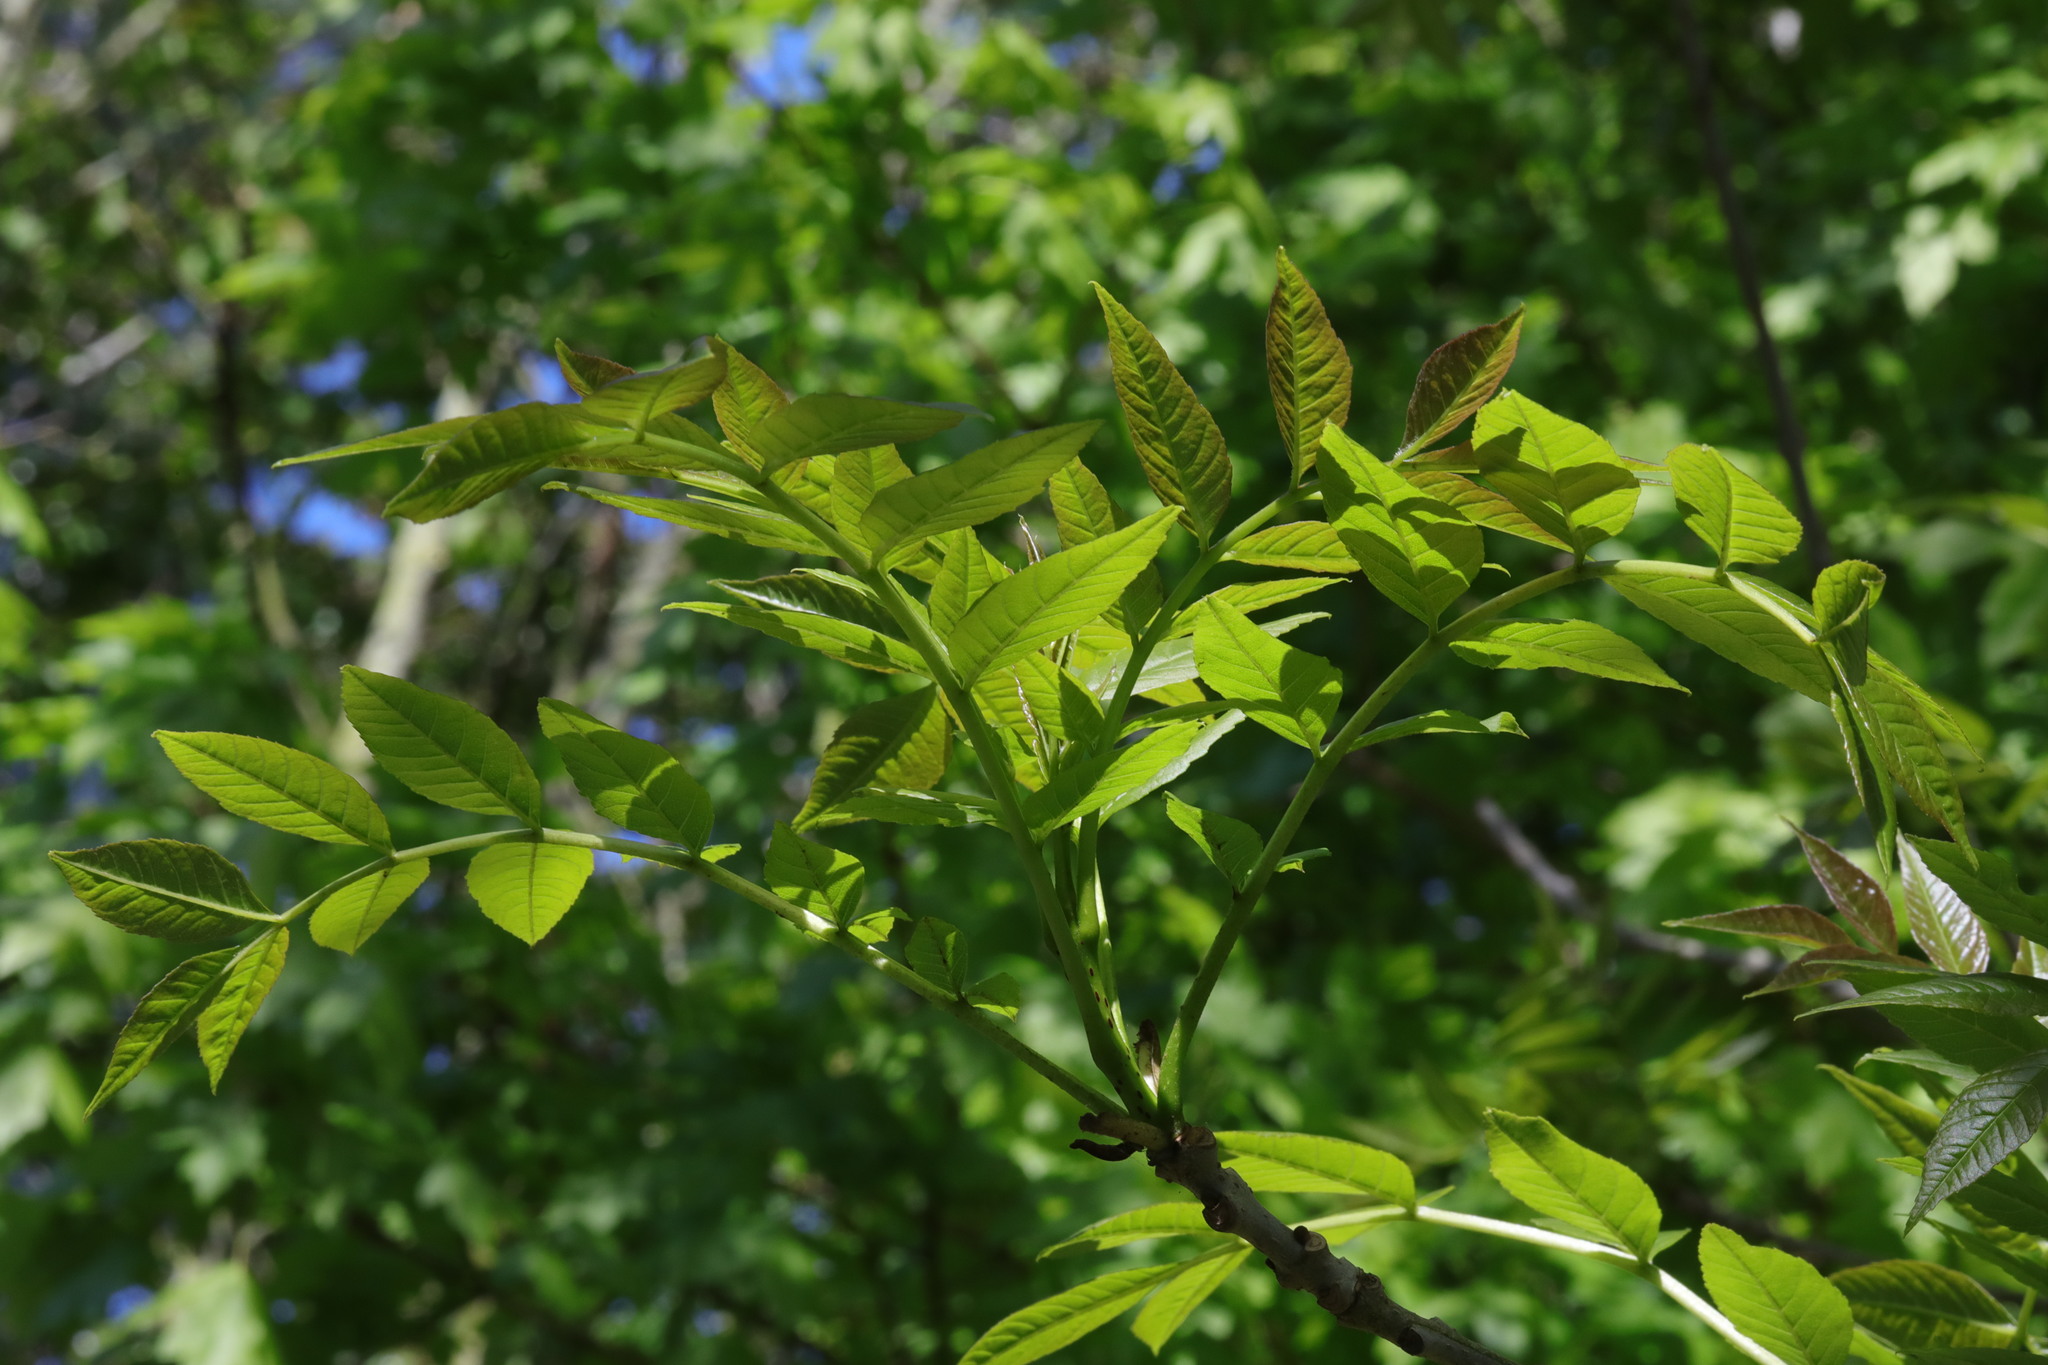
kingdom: Plantae
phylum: Tracheophyta
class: Magnoliopsida
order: Lamiales
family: Oleaceae
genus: Fraxinus
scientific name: Fraxinus excelsior
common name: European ash
